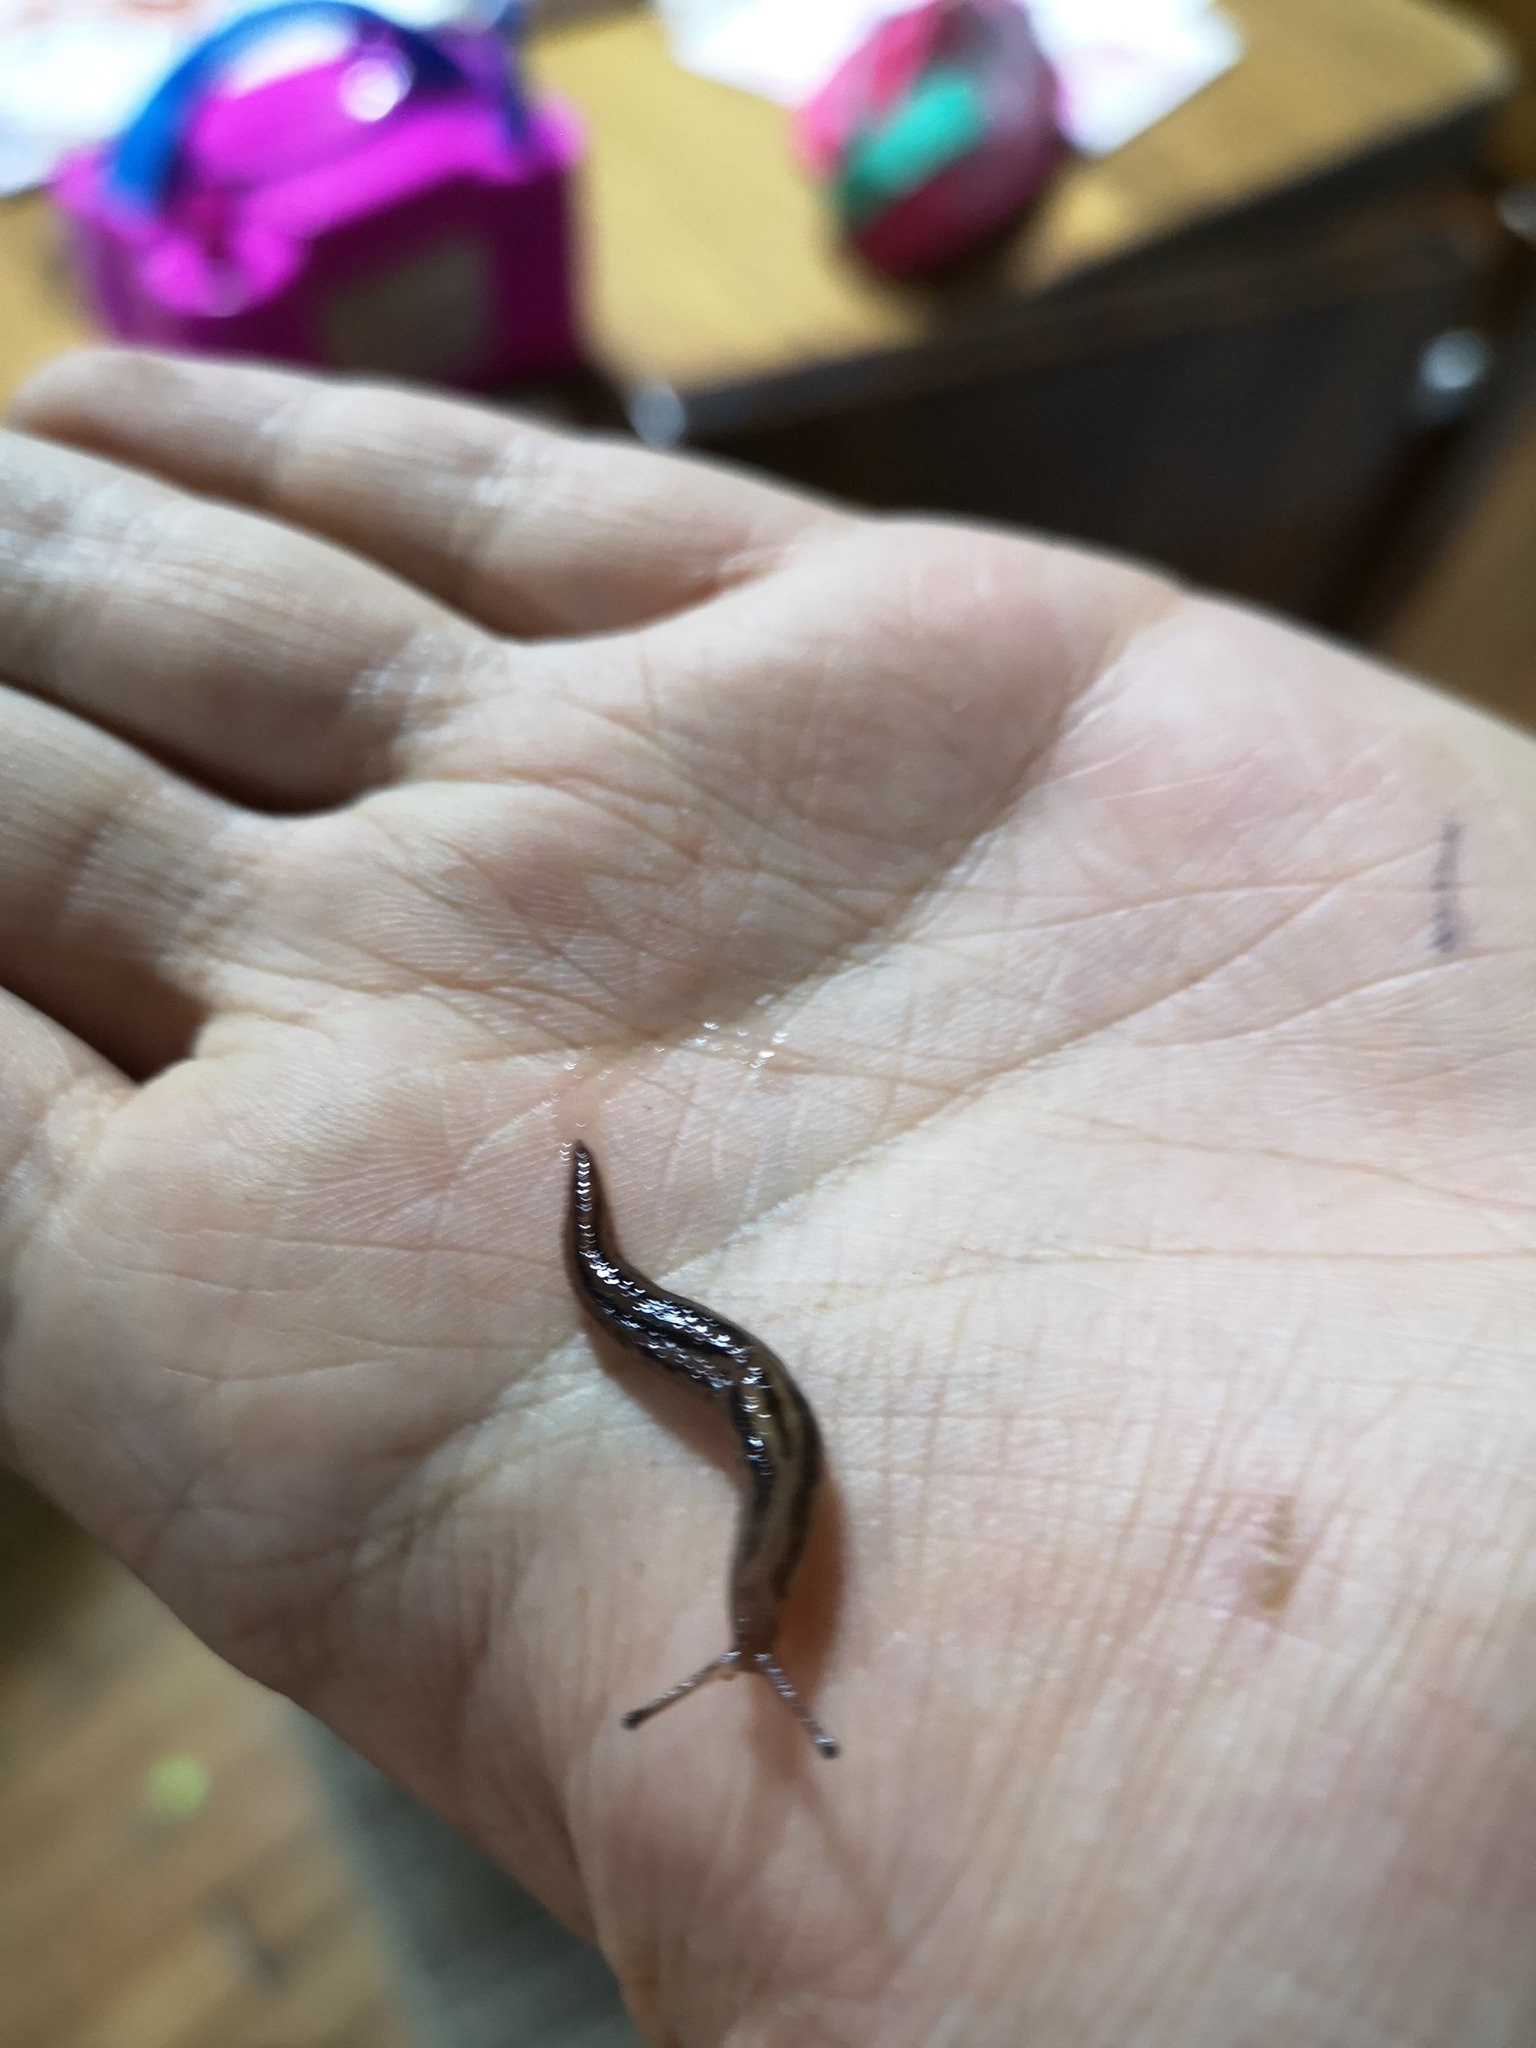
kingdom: Animalia
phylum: Mollusca
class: Gastropoda
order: Stylommatophora
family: Limacidae
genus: Ambigolimax
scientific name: Ambigolimax
